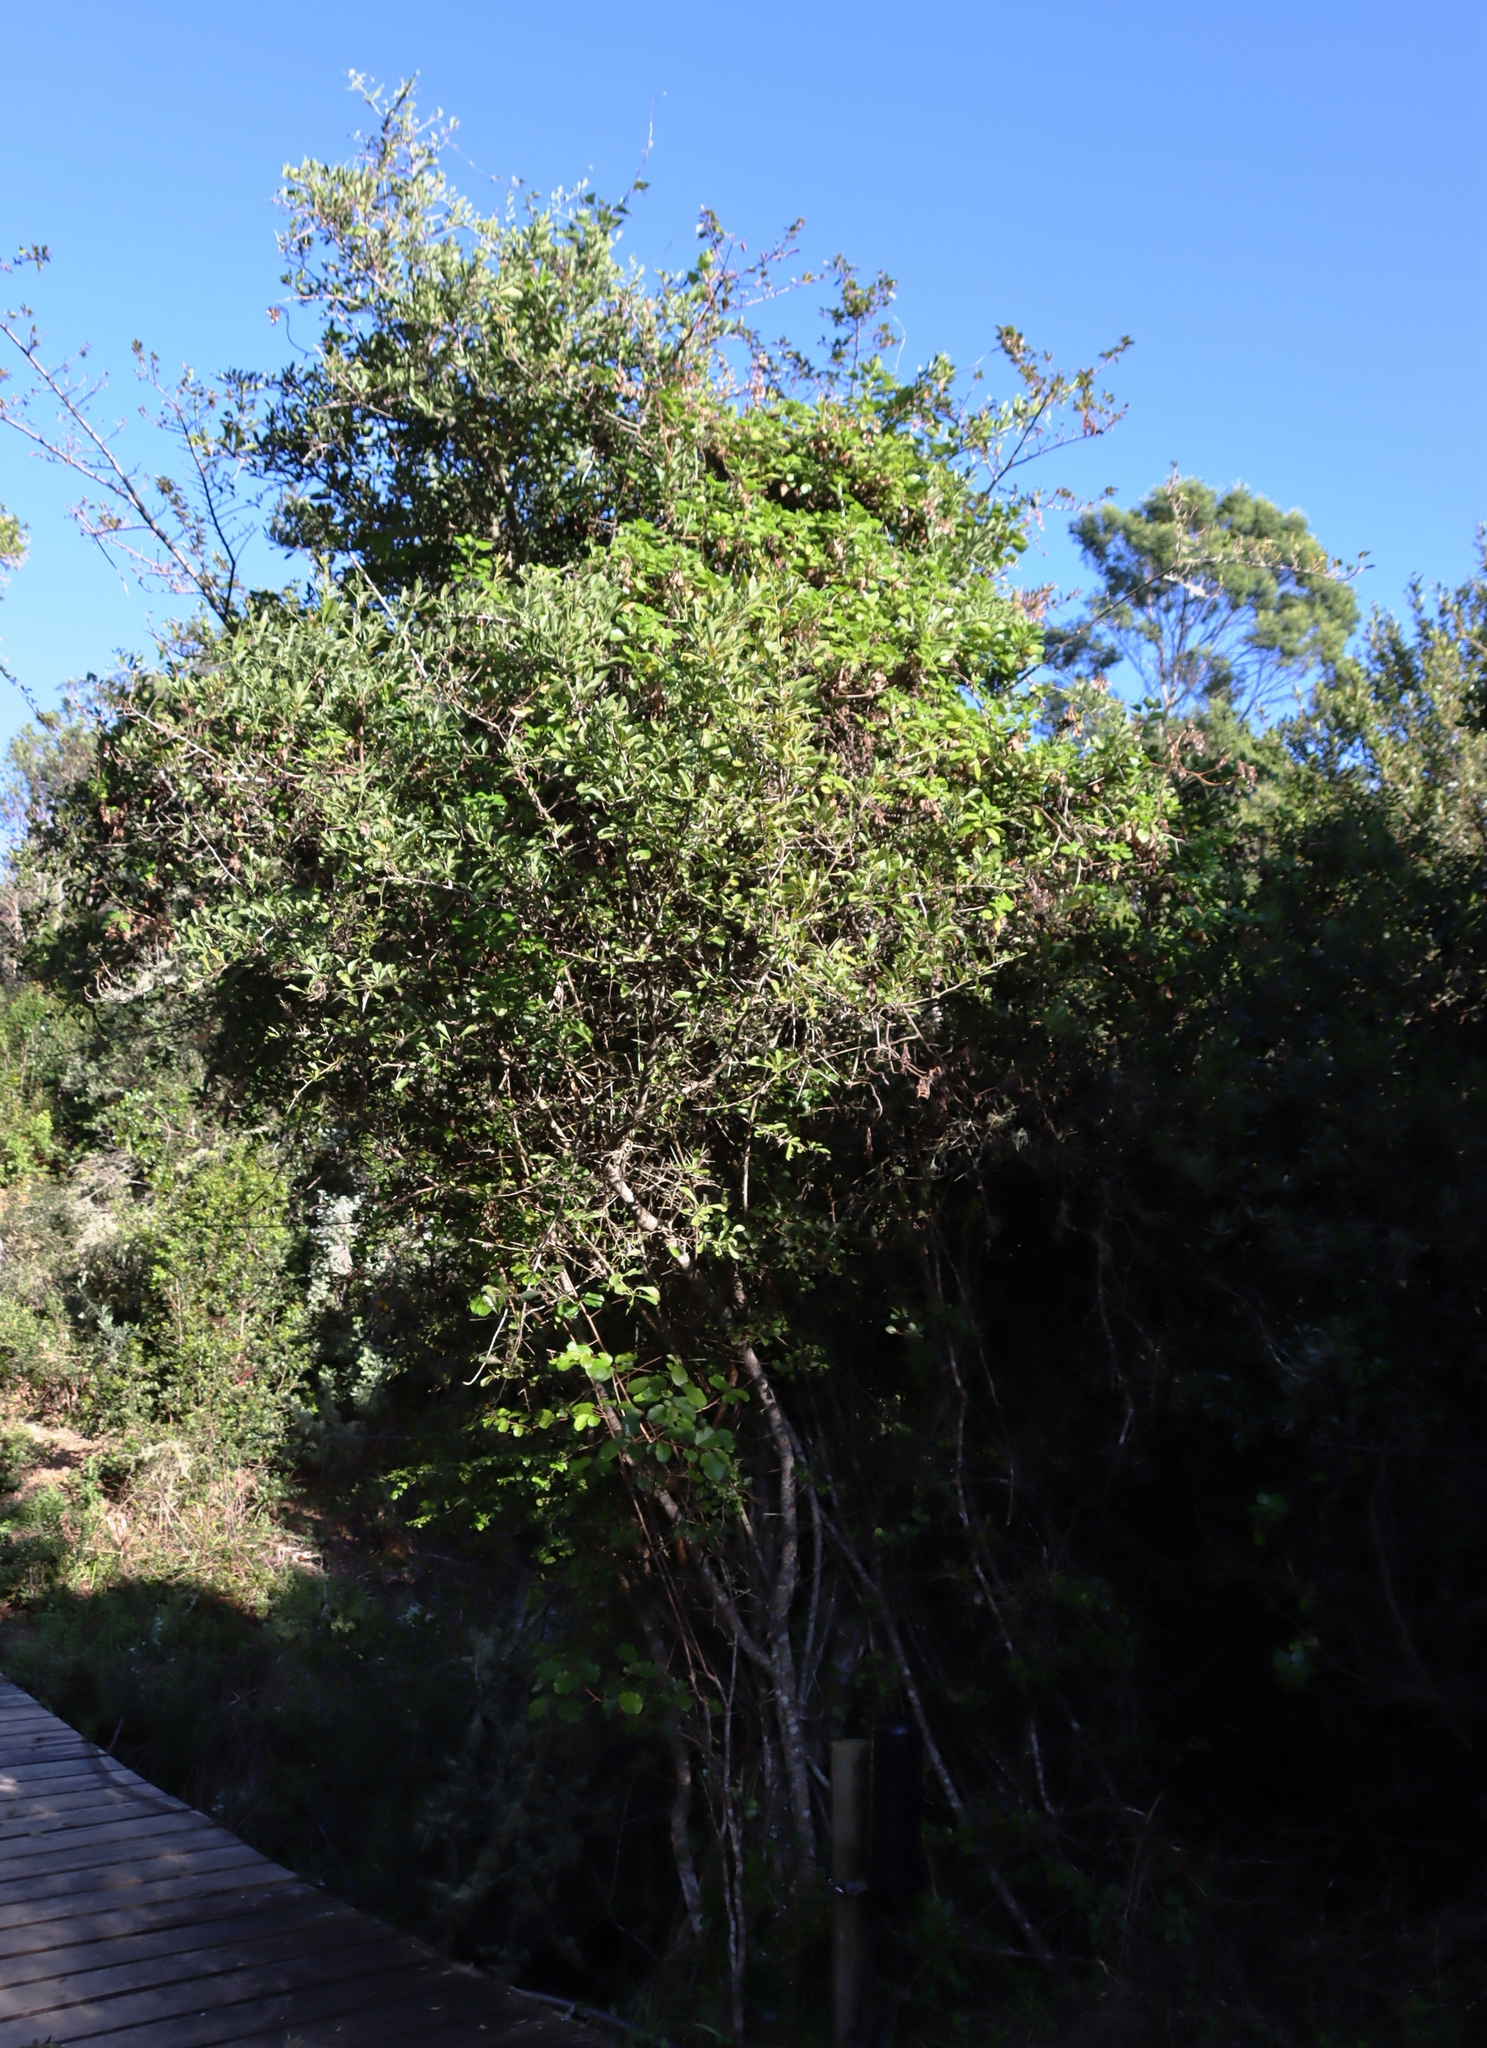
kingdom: Plantae
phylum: Tracheophyta
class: Magnoliopsida
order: Asterales
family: Asteraceae
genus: Senecio
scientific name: Senecio deltoideus
